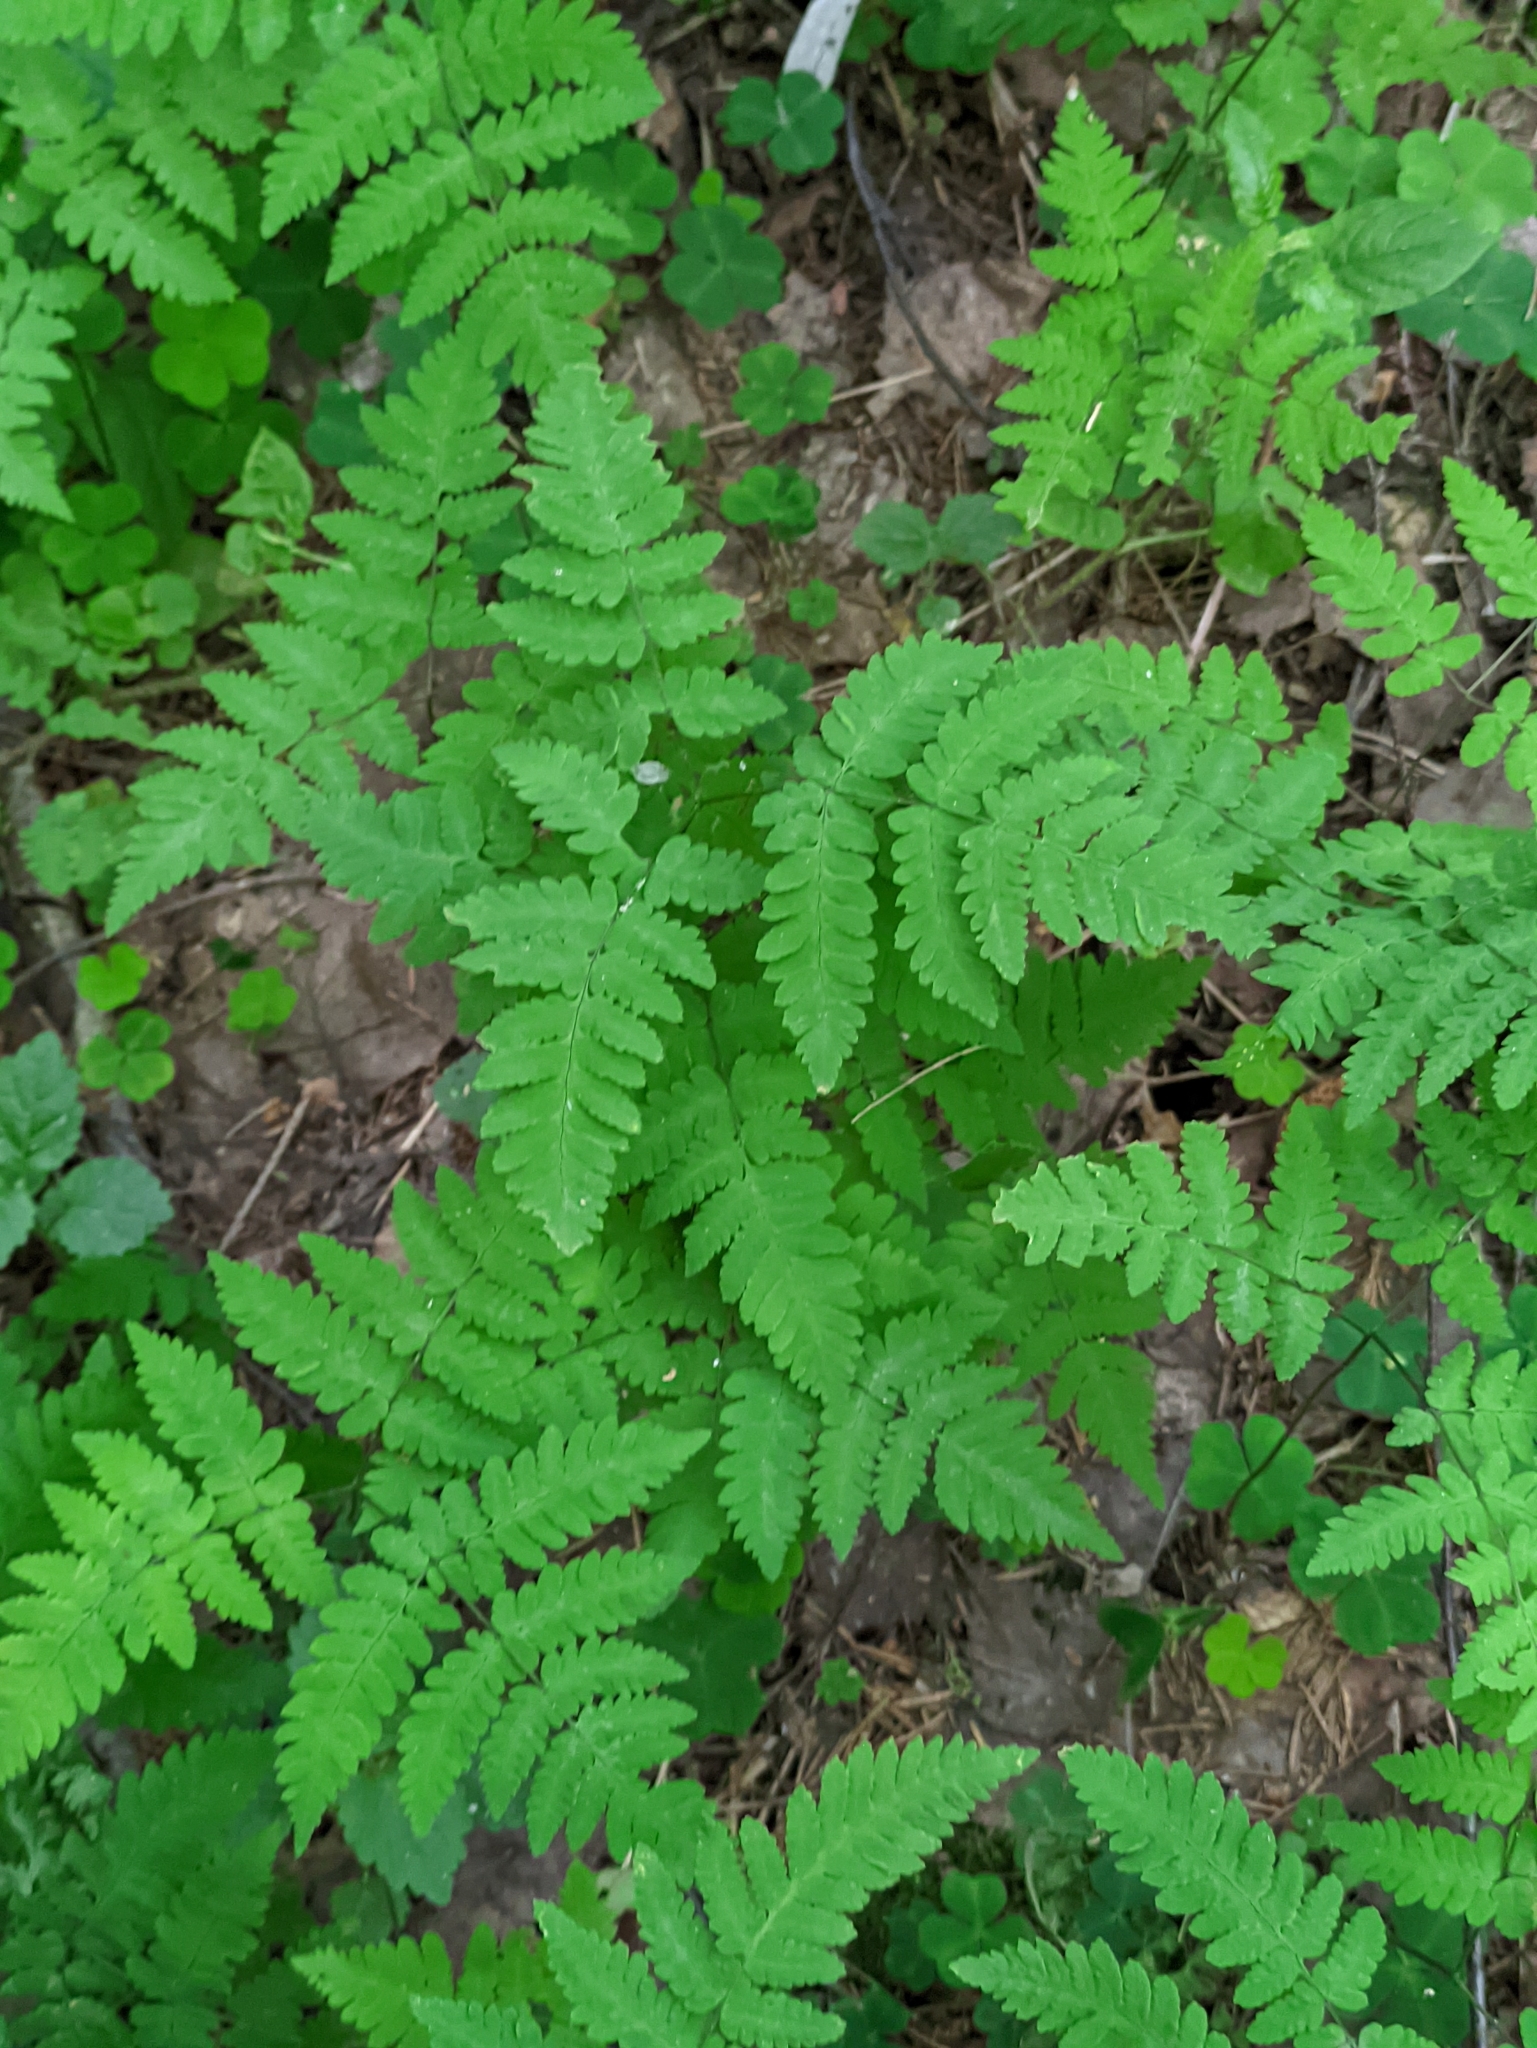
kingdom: Plantae
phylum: Tracheophyta
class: Polypodiopsida
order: Polypodiales
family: Cystopteridaceae
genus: Gymnocarpium
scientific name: Gymnocarpium dryopteris
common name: Oak fern
